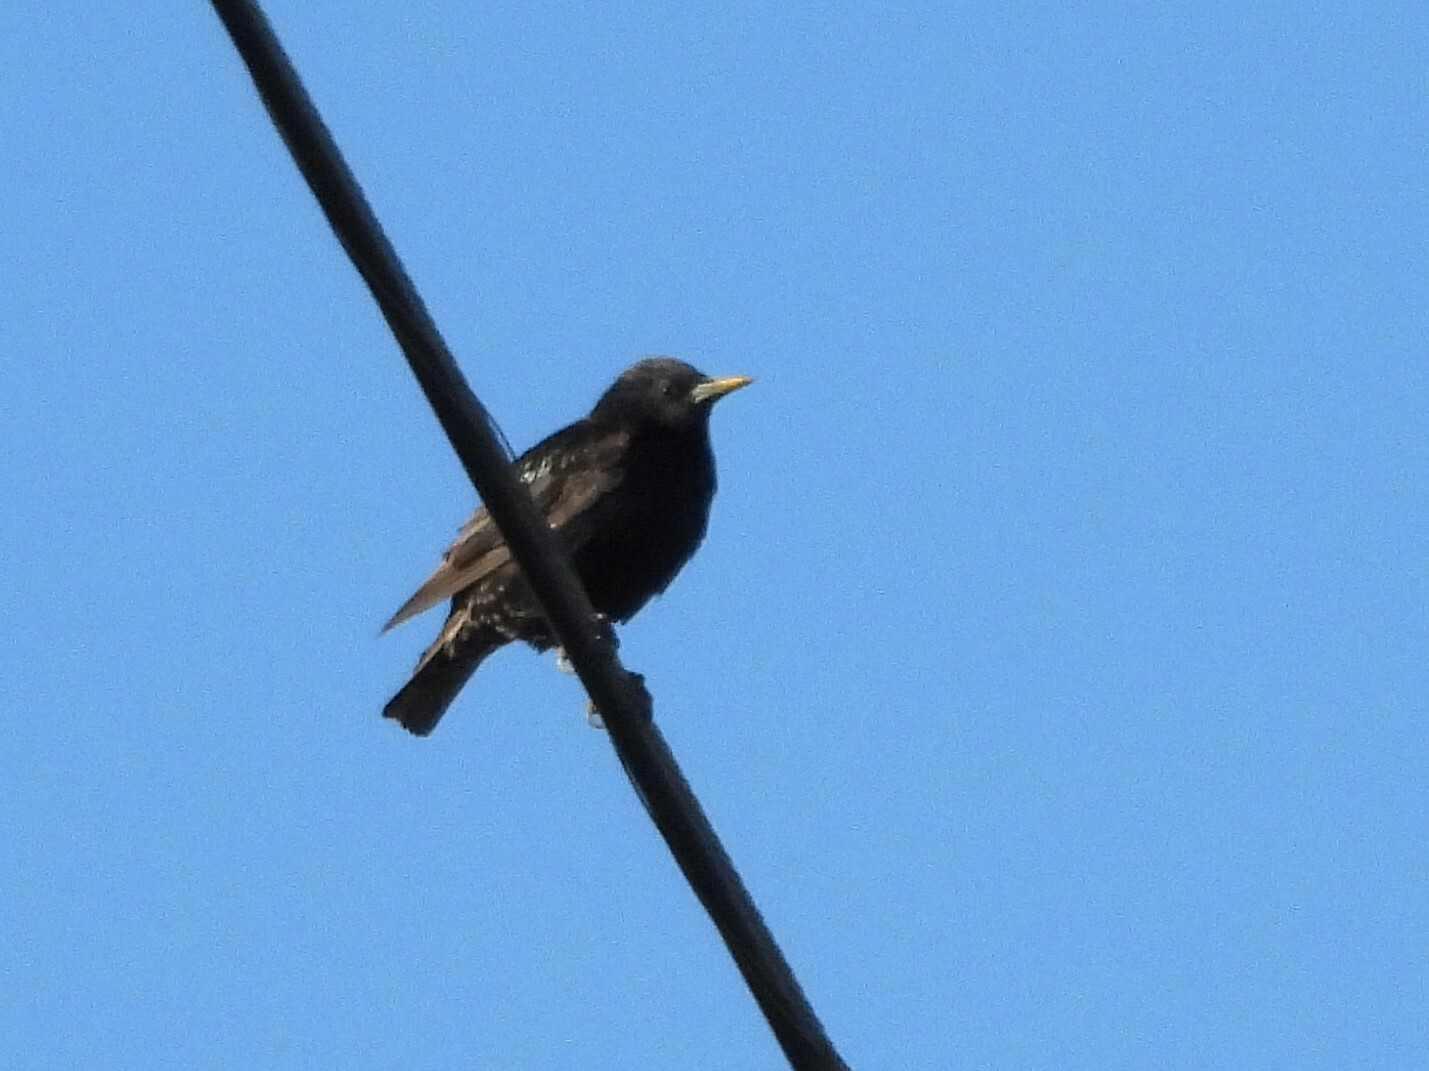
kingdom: Animalia
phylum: Chordata
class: Aves
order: Passeriformes
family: Sturnidae
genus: Sturnus
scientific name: Sturnus vulgaris
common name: Common starling
